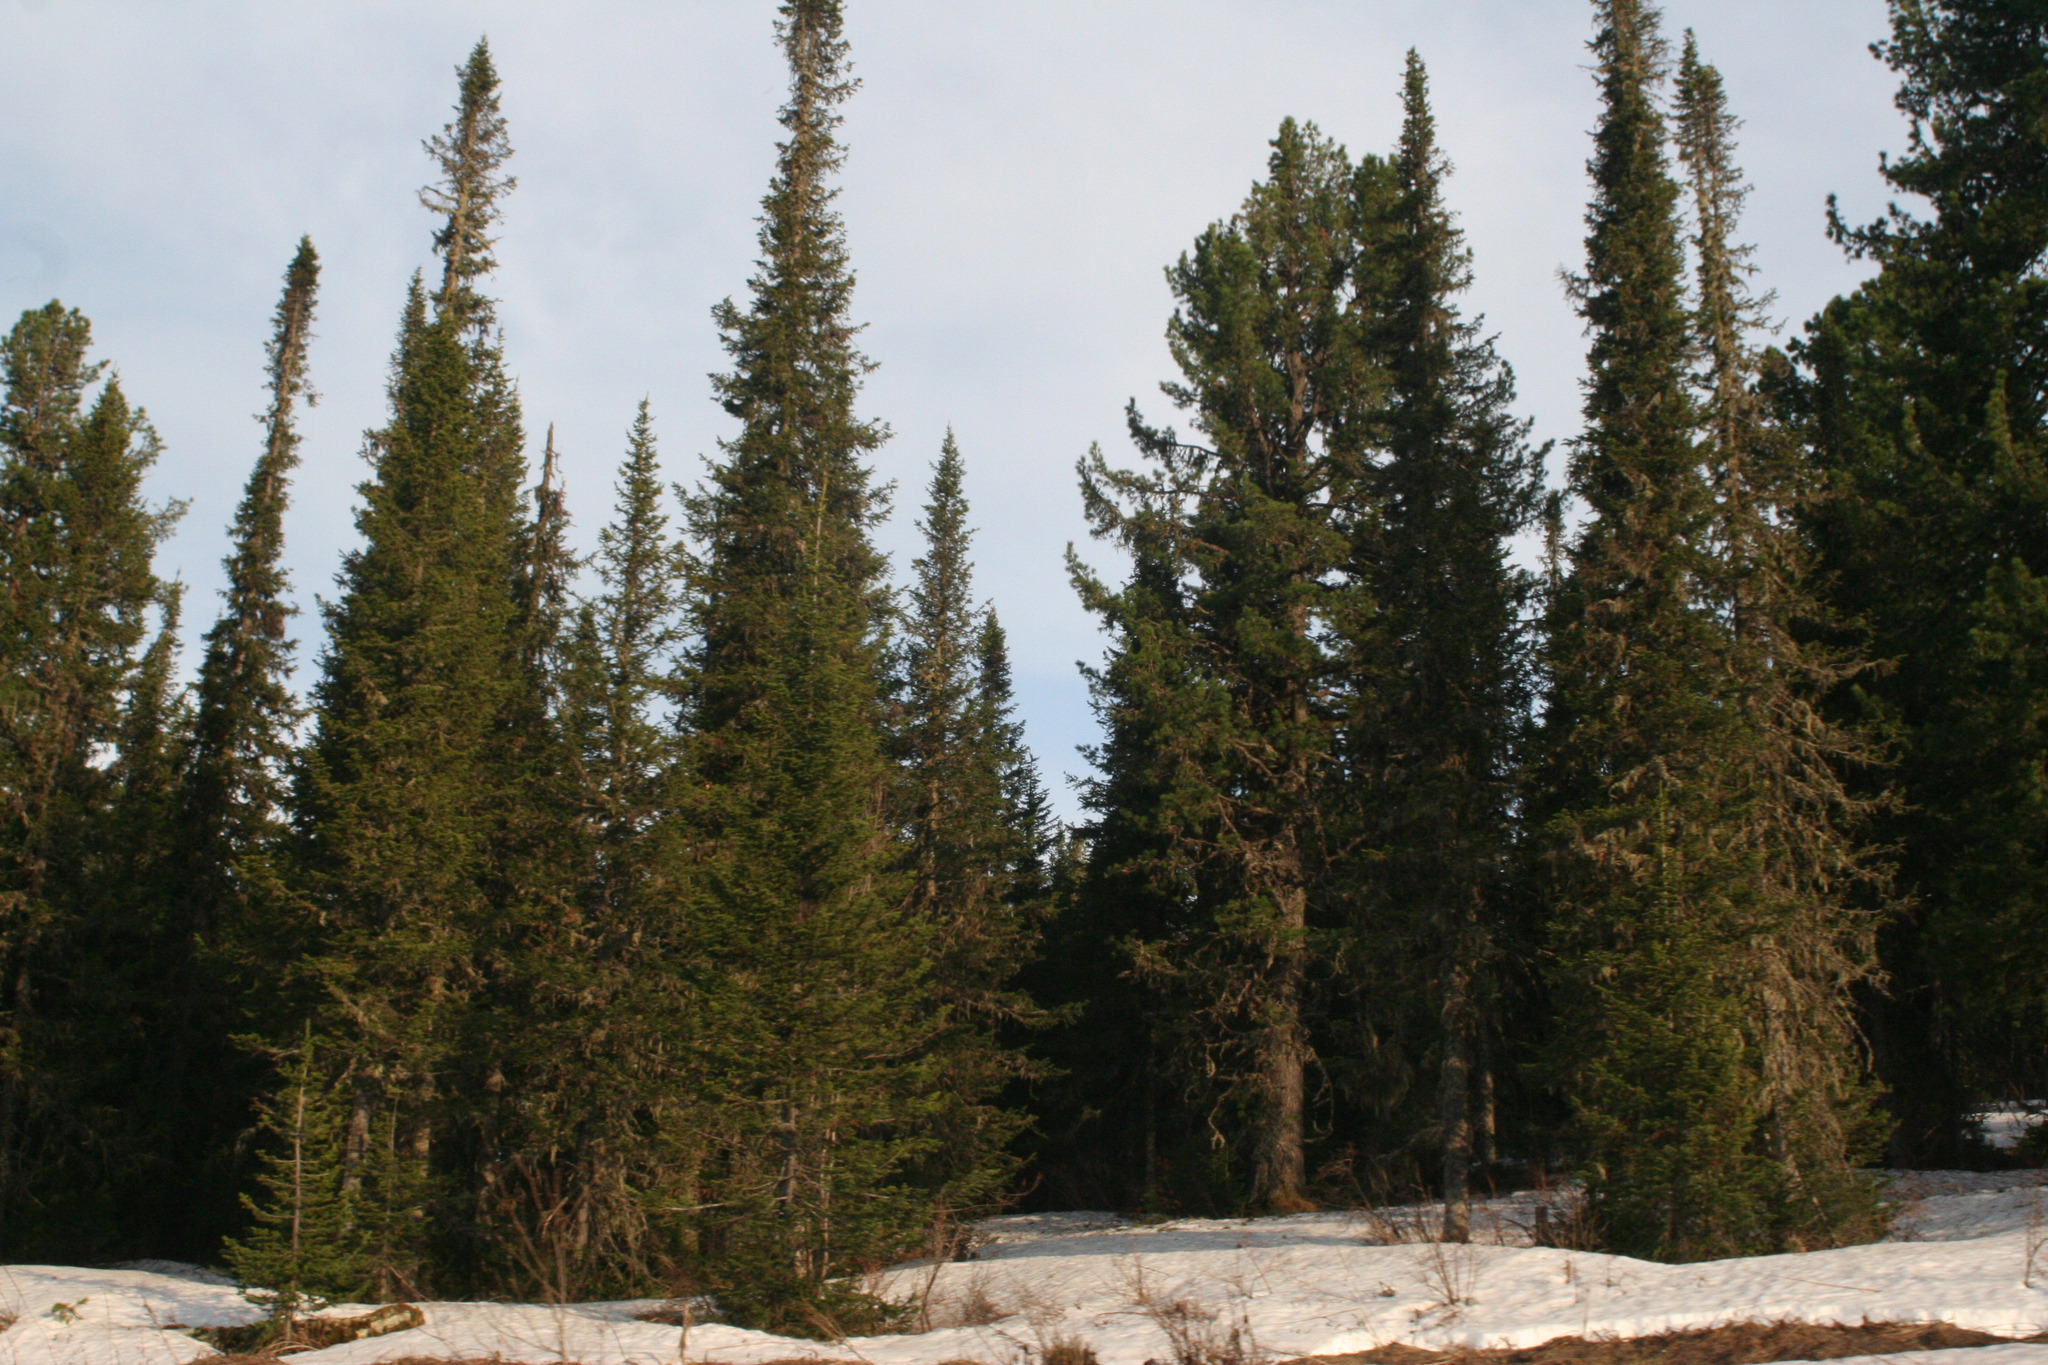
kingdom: Plantae
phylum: Tracheophyta
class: Pinopsida
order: Pinales
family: Pinaceae
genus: Abies
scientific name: Abies sibirica
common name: Siberian fir
